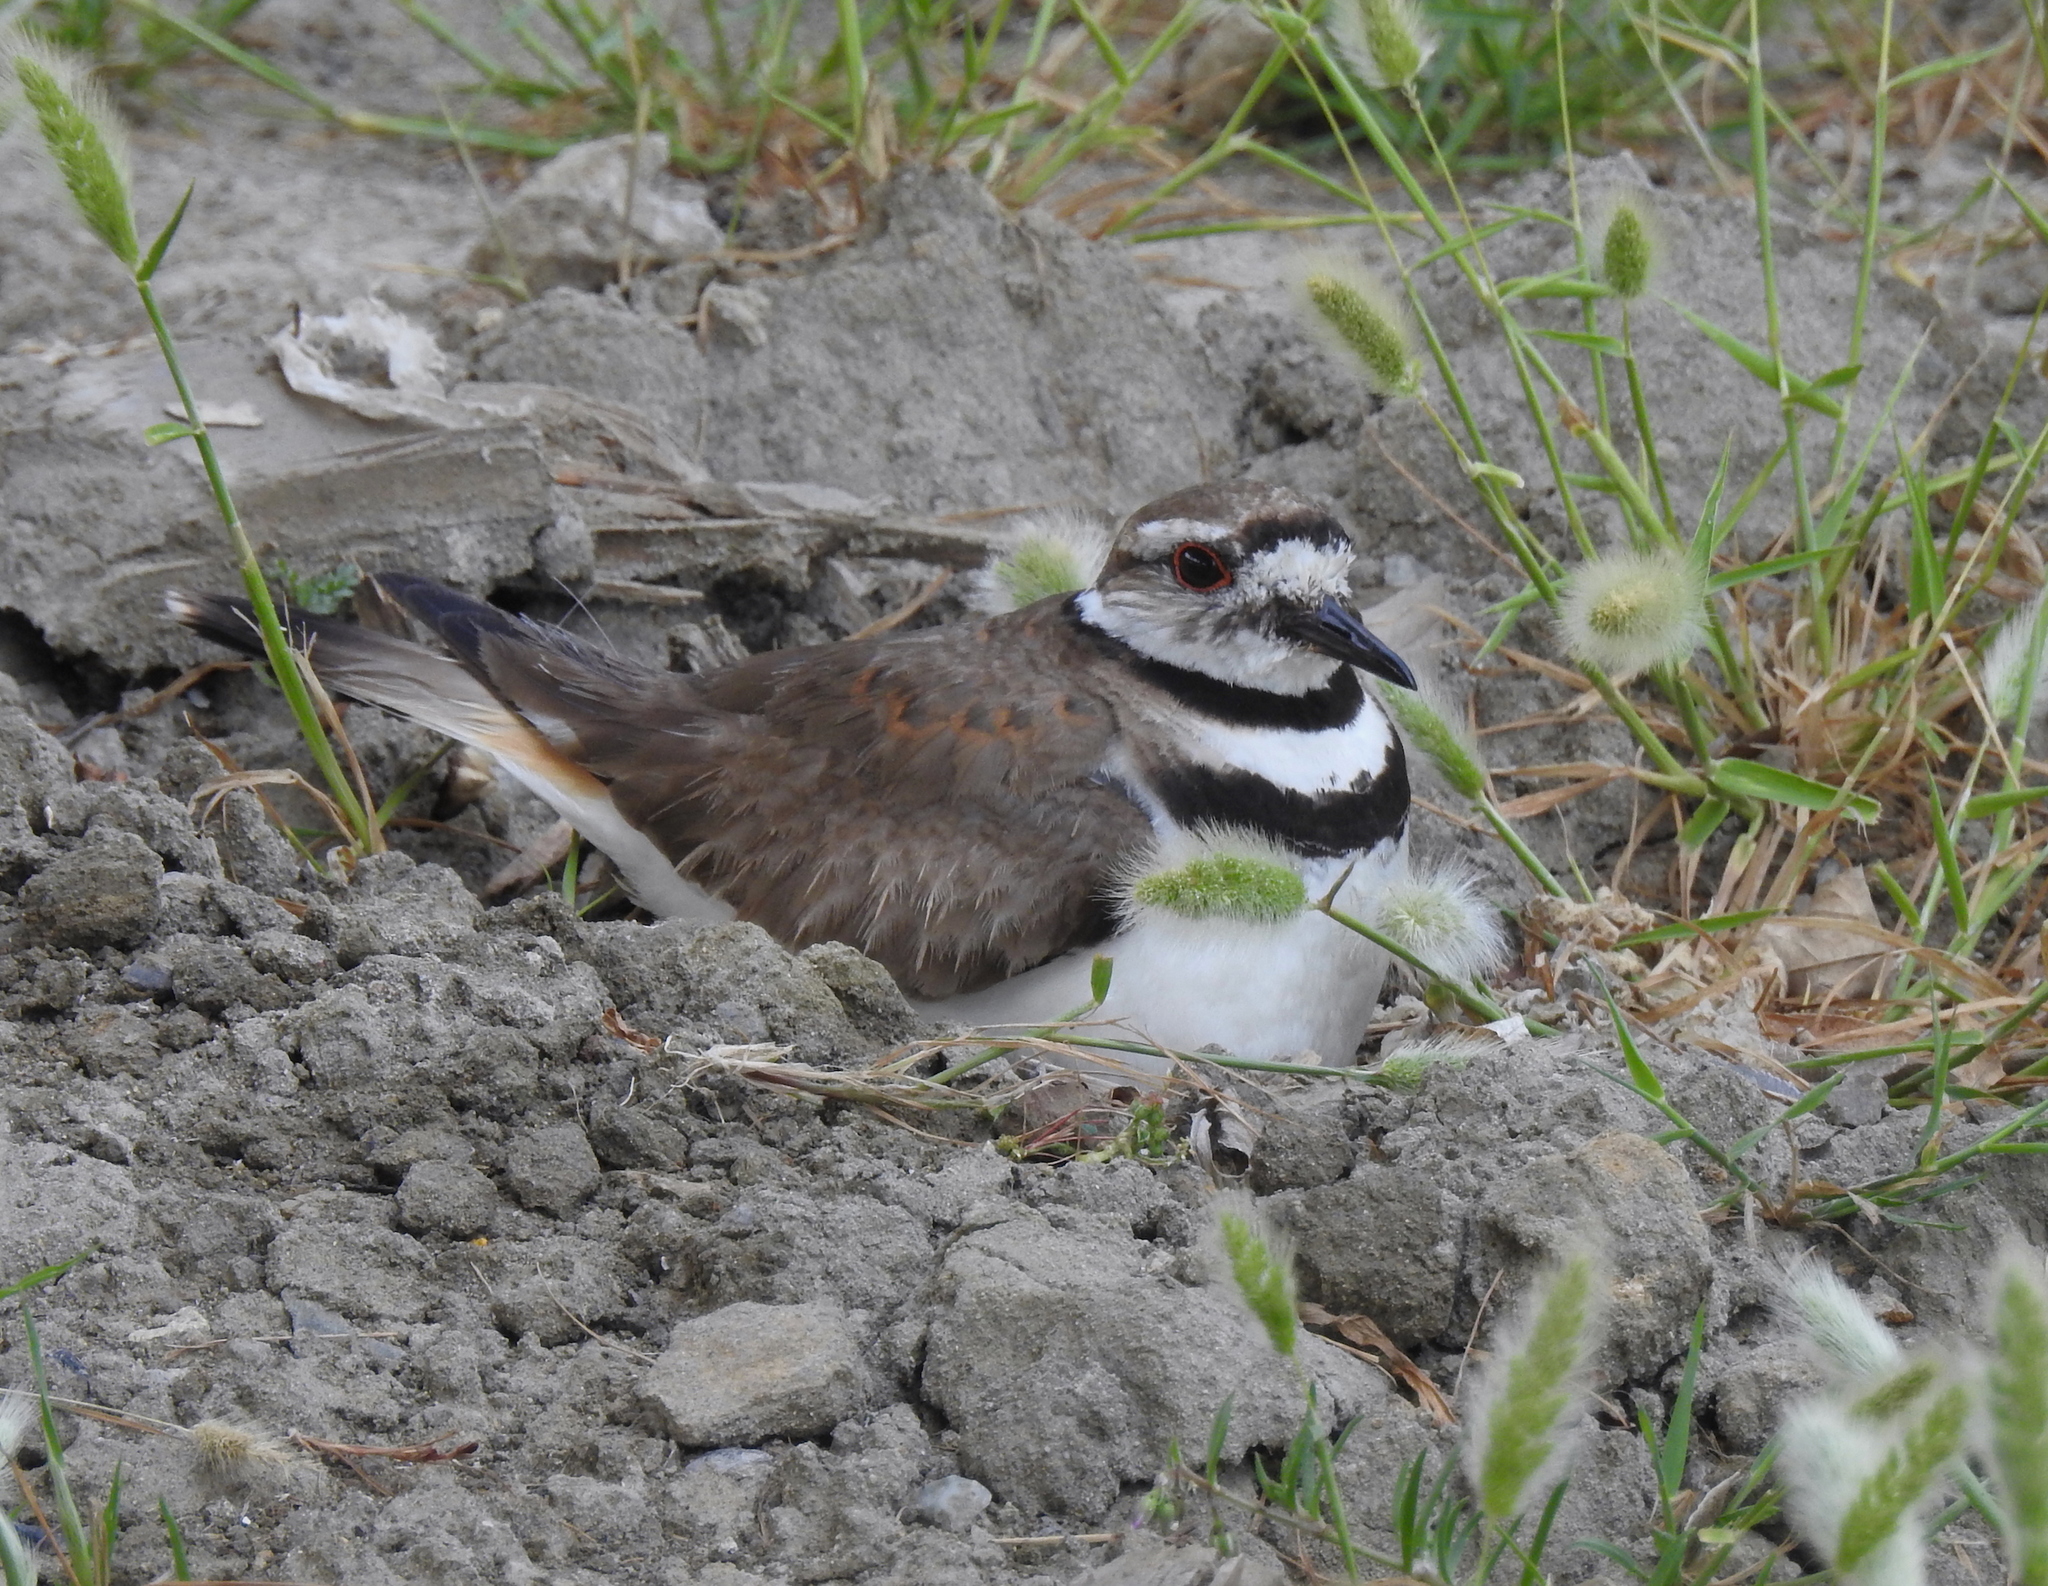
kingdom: Animalia
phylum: Chordata
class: Aves
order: Charadriiformes
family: Charadriidae
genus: Charadrius
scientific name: Charadrius vociferus
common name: Killdeer
